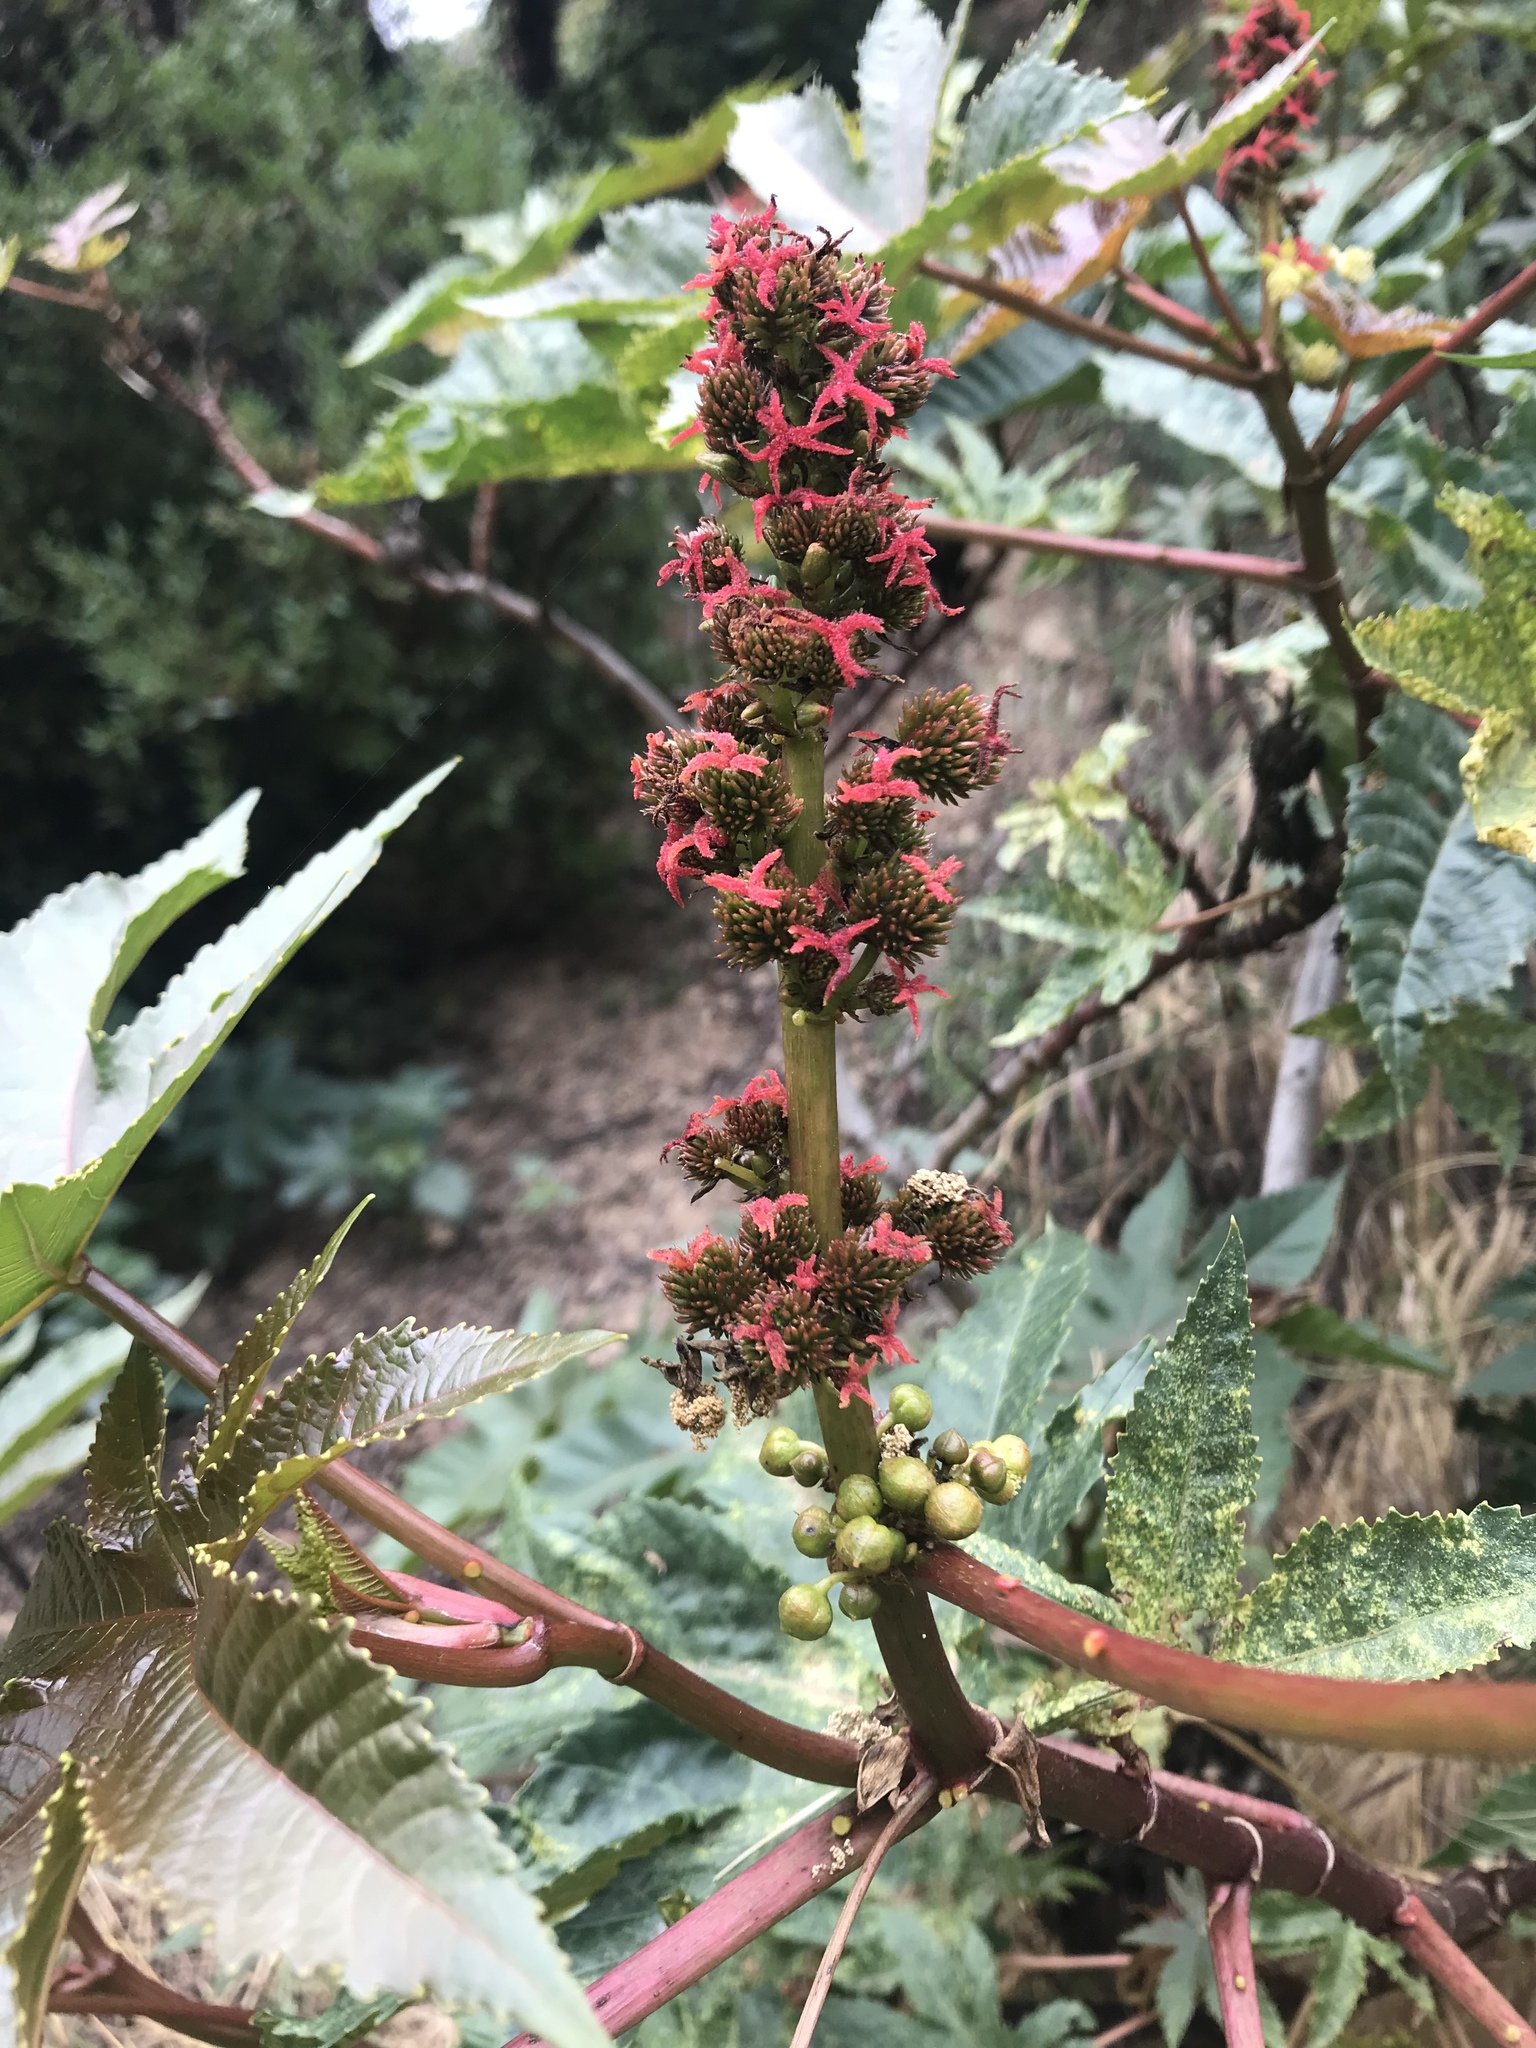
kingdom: Plantae
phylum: Tracheophyta
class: Magnoliopsida
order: Malpighiales
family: Euphorbiaceae
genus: Ricinus
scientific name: Ricinus communis
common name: Castor-oil-plant
